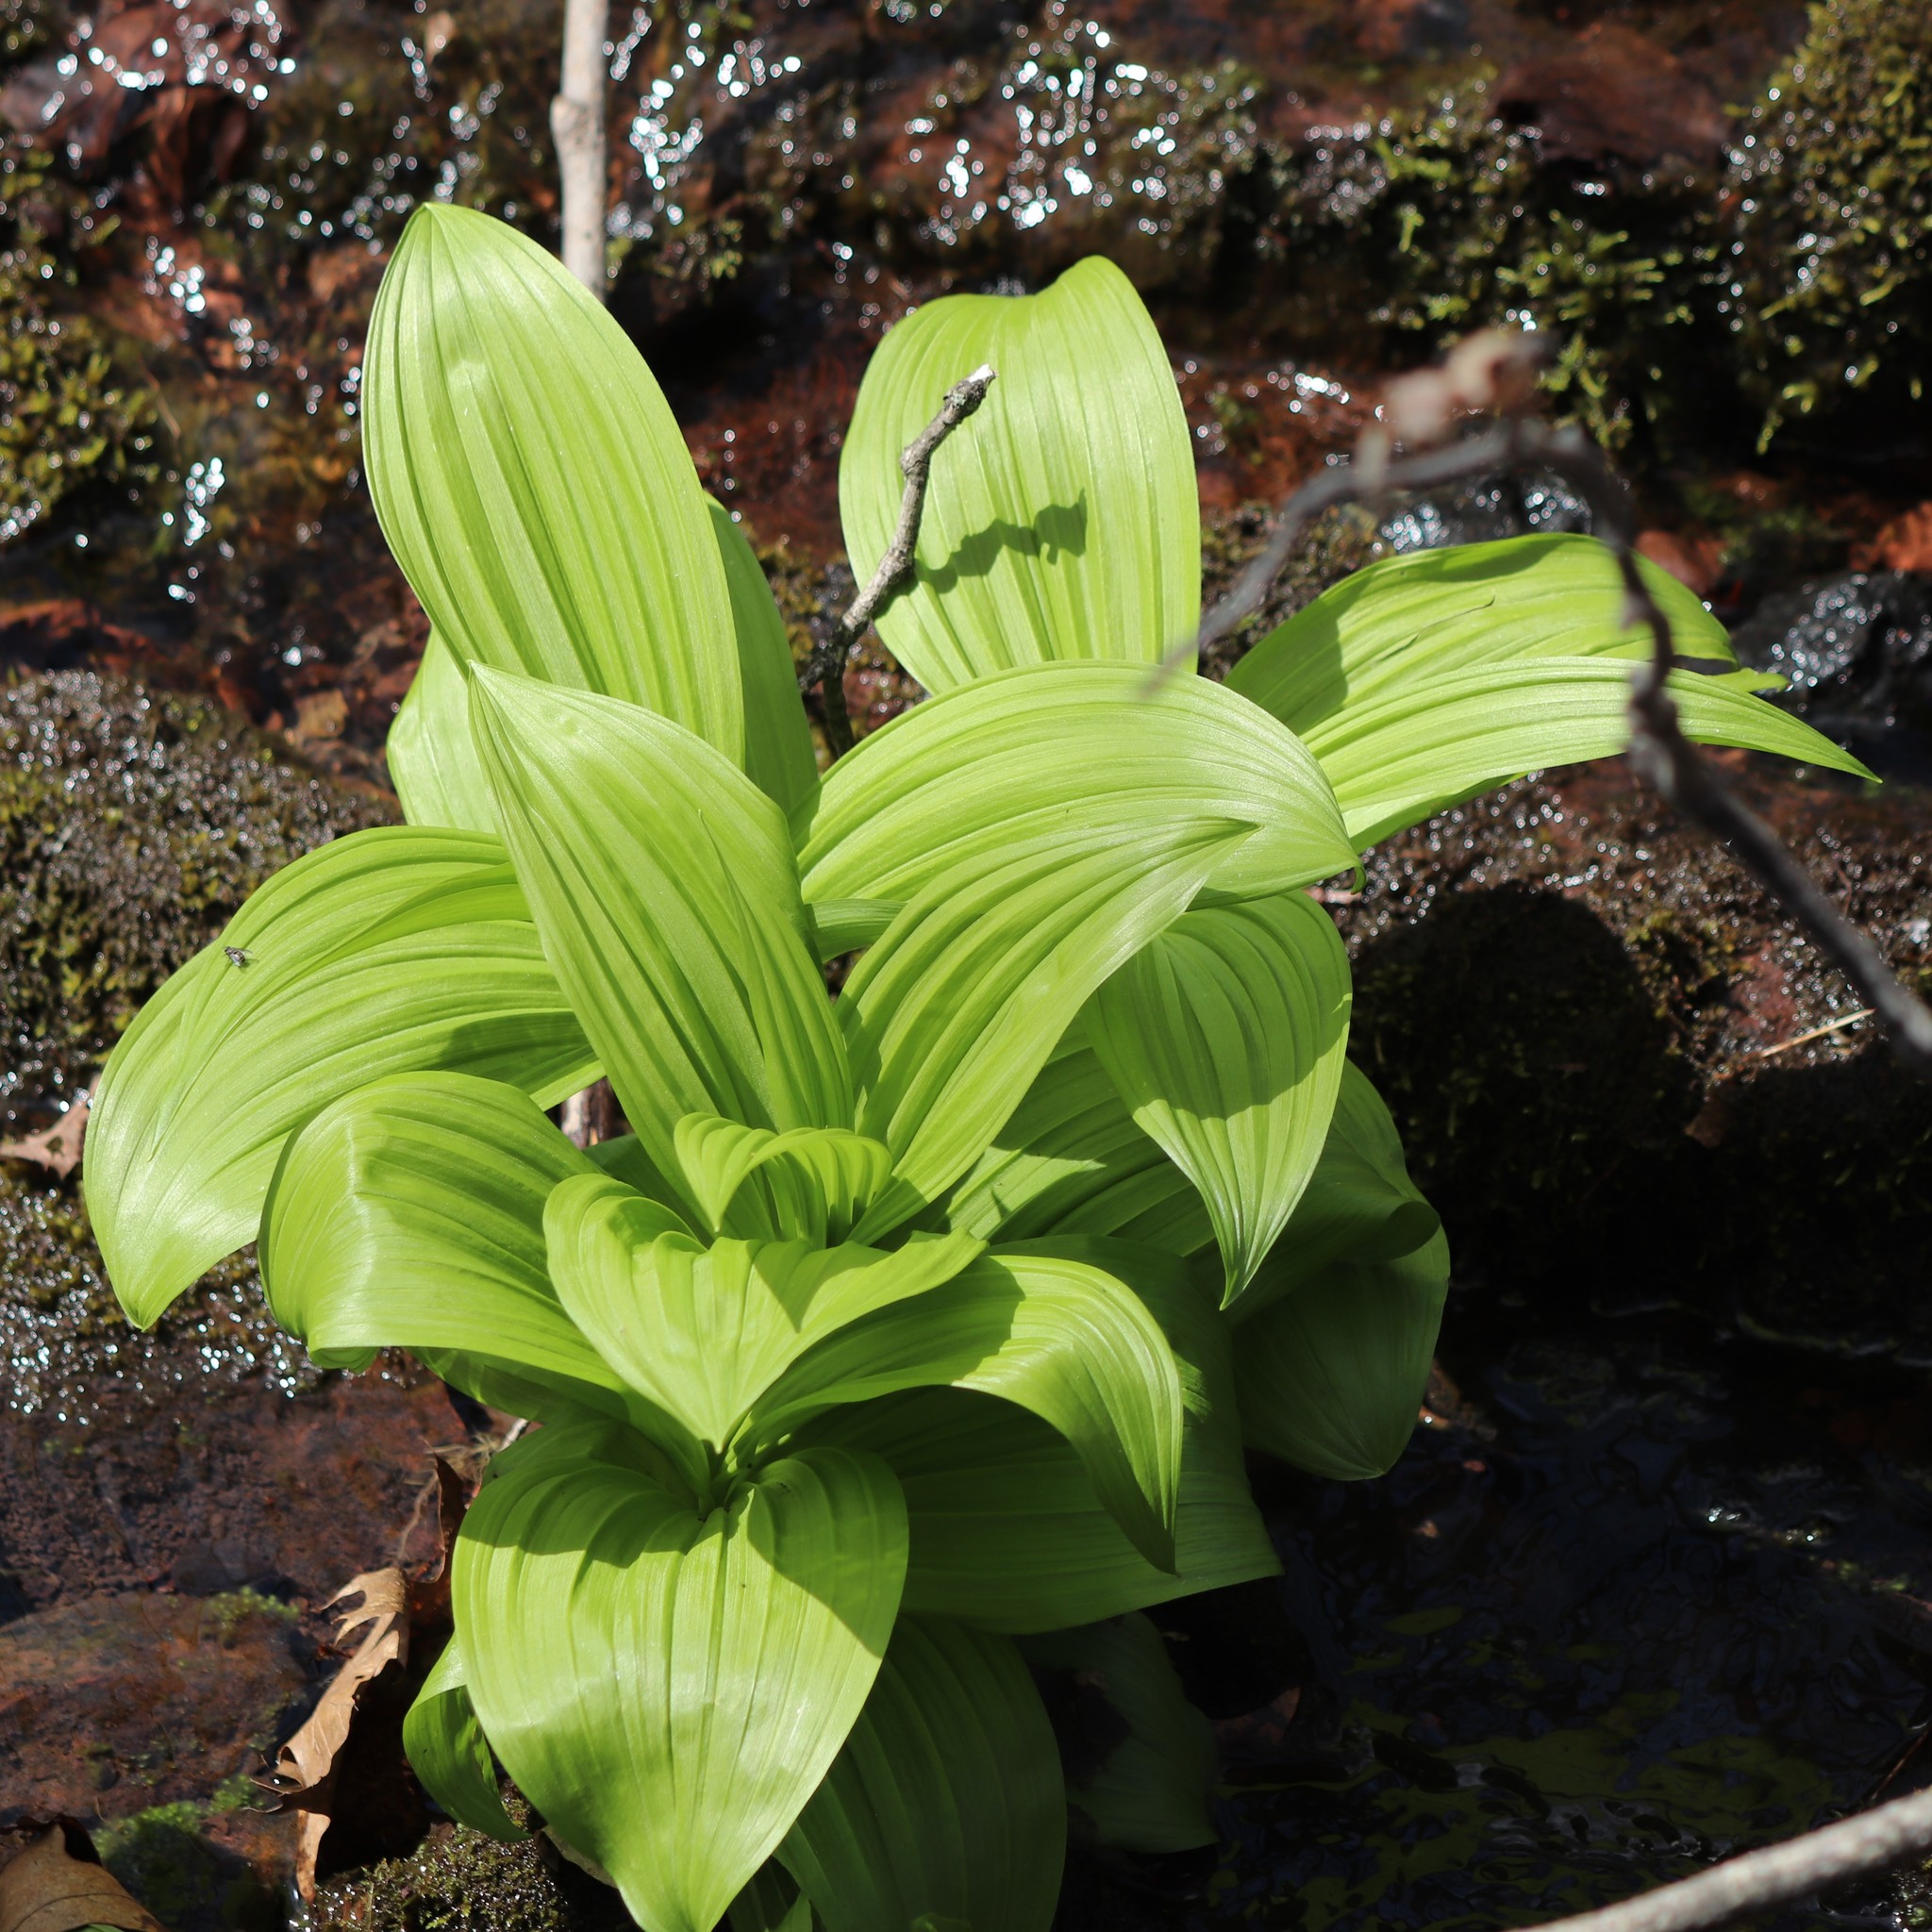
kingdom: Plantae
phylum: Tracheophyta
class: Liliopsida
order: Liliales
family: Melanthiaceae
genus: Veratrum
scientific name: Veratrum viride
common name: American false hellebore
